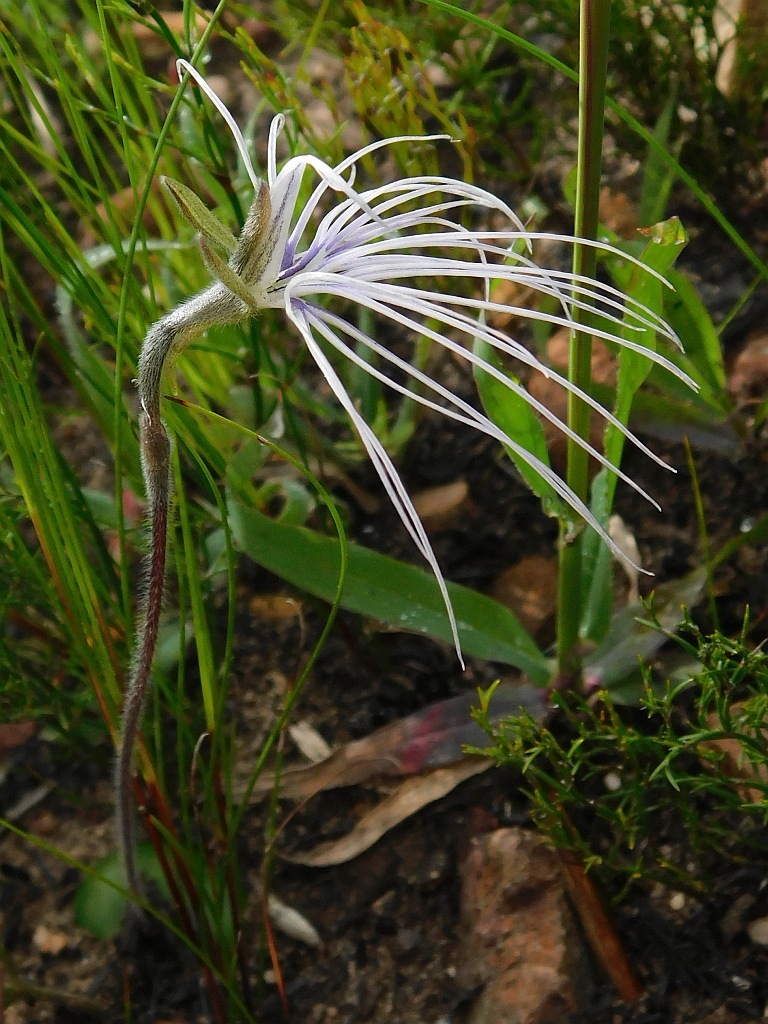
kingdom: Plantae
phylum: Tracheophyta
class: Liliopsida
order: Asparagales
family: Orchidaceae
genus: Holothrix
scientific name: Holothrix burmanniana
